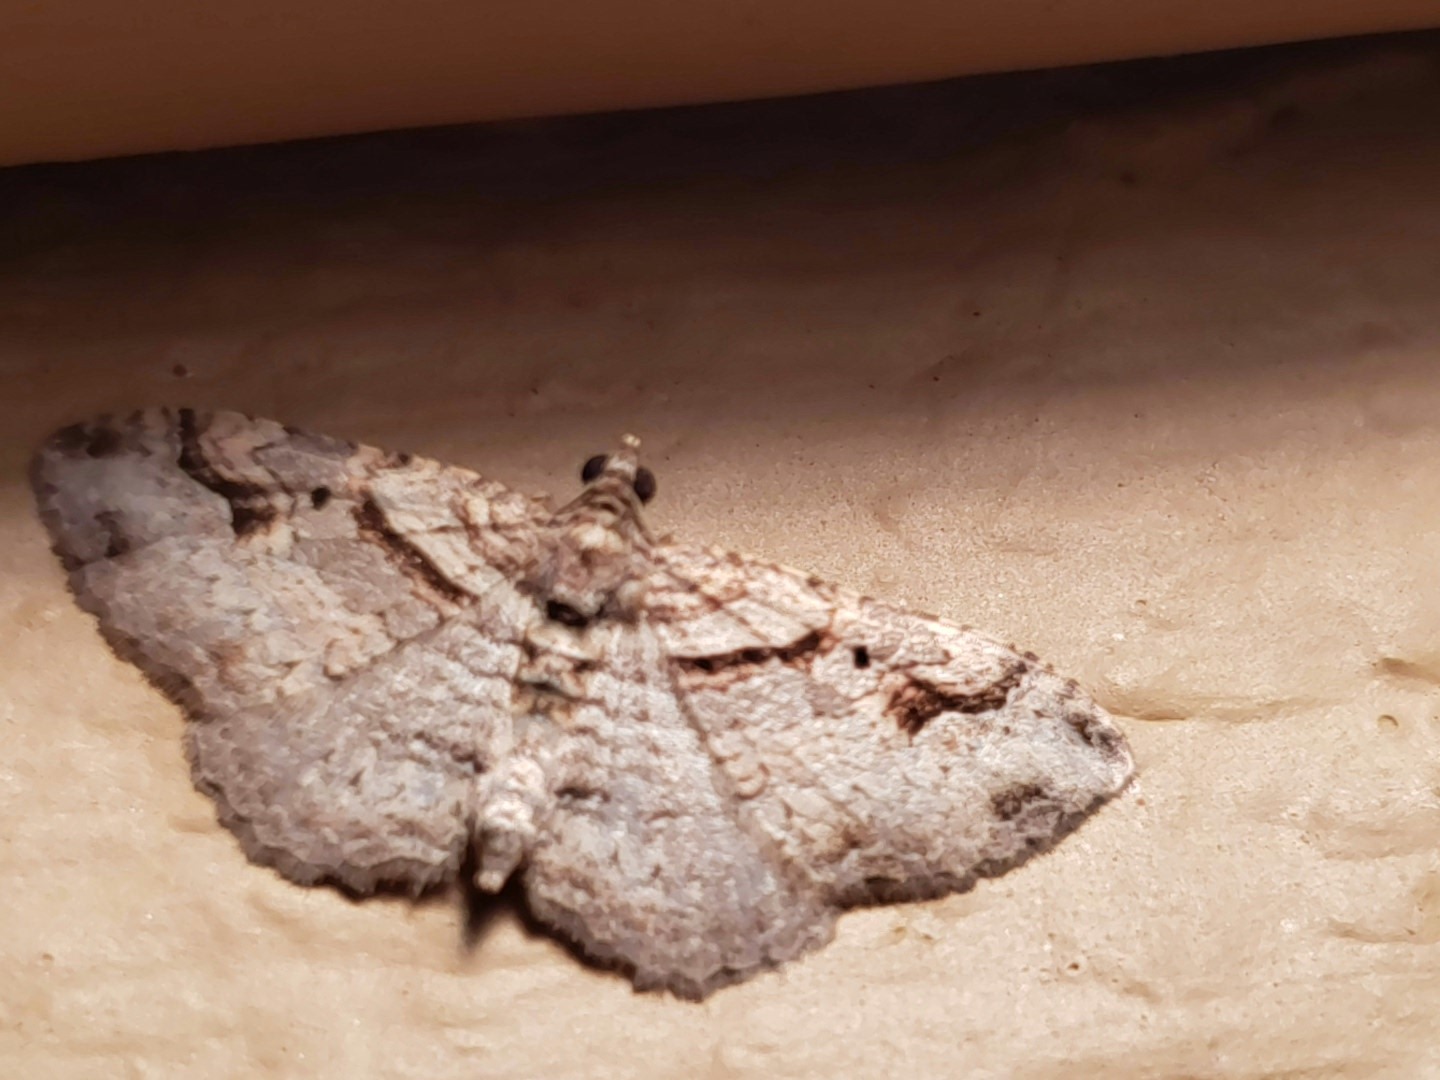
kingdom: Animalia
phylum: Arthropoda
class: Insecta
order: Lepidoptera
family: Geometridae
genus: Costaconvexa
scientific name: Costaconvexa centrostrigaria
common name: Bent-line carpet
